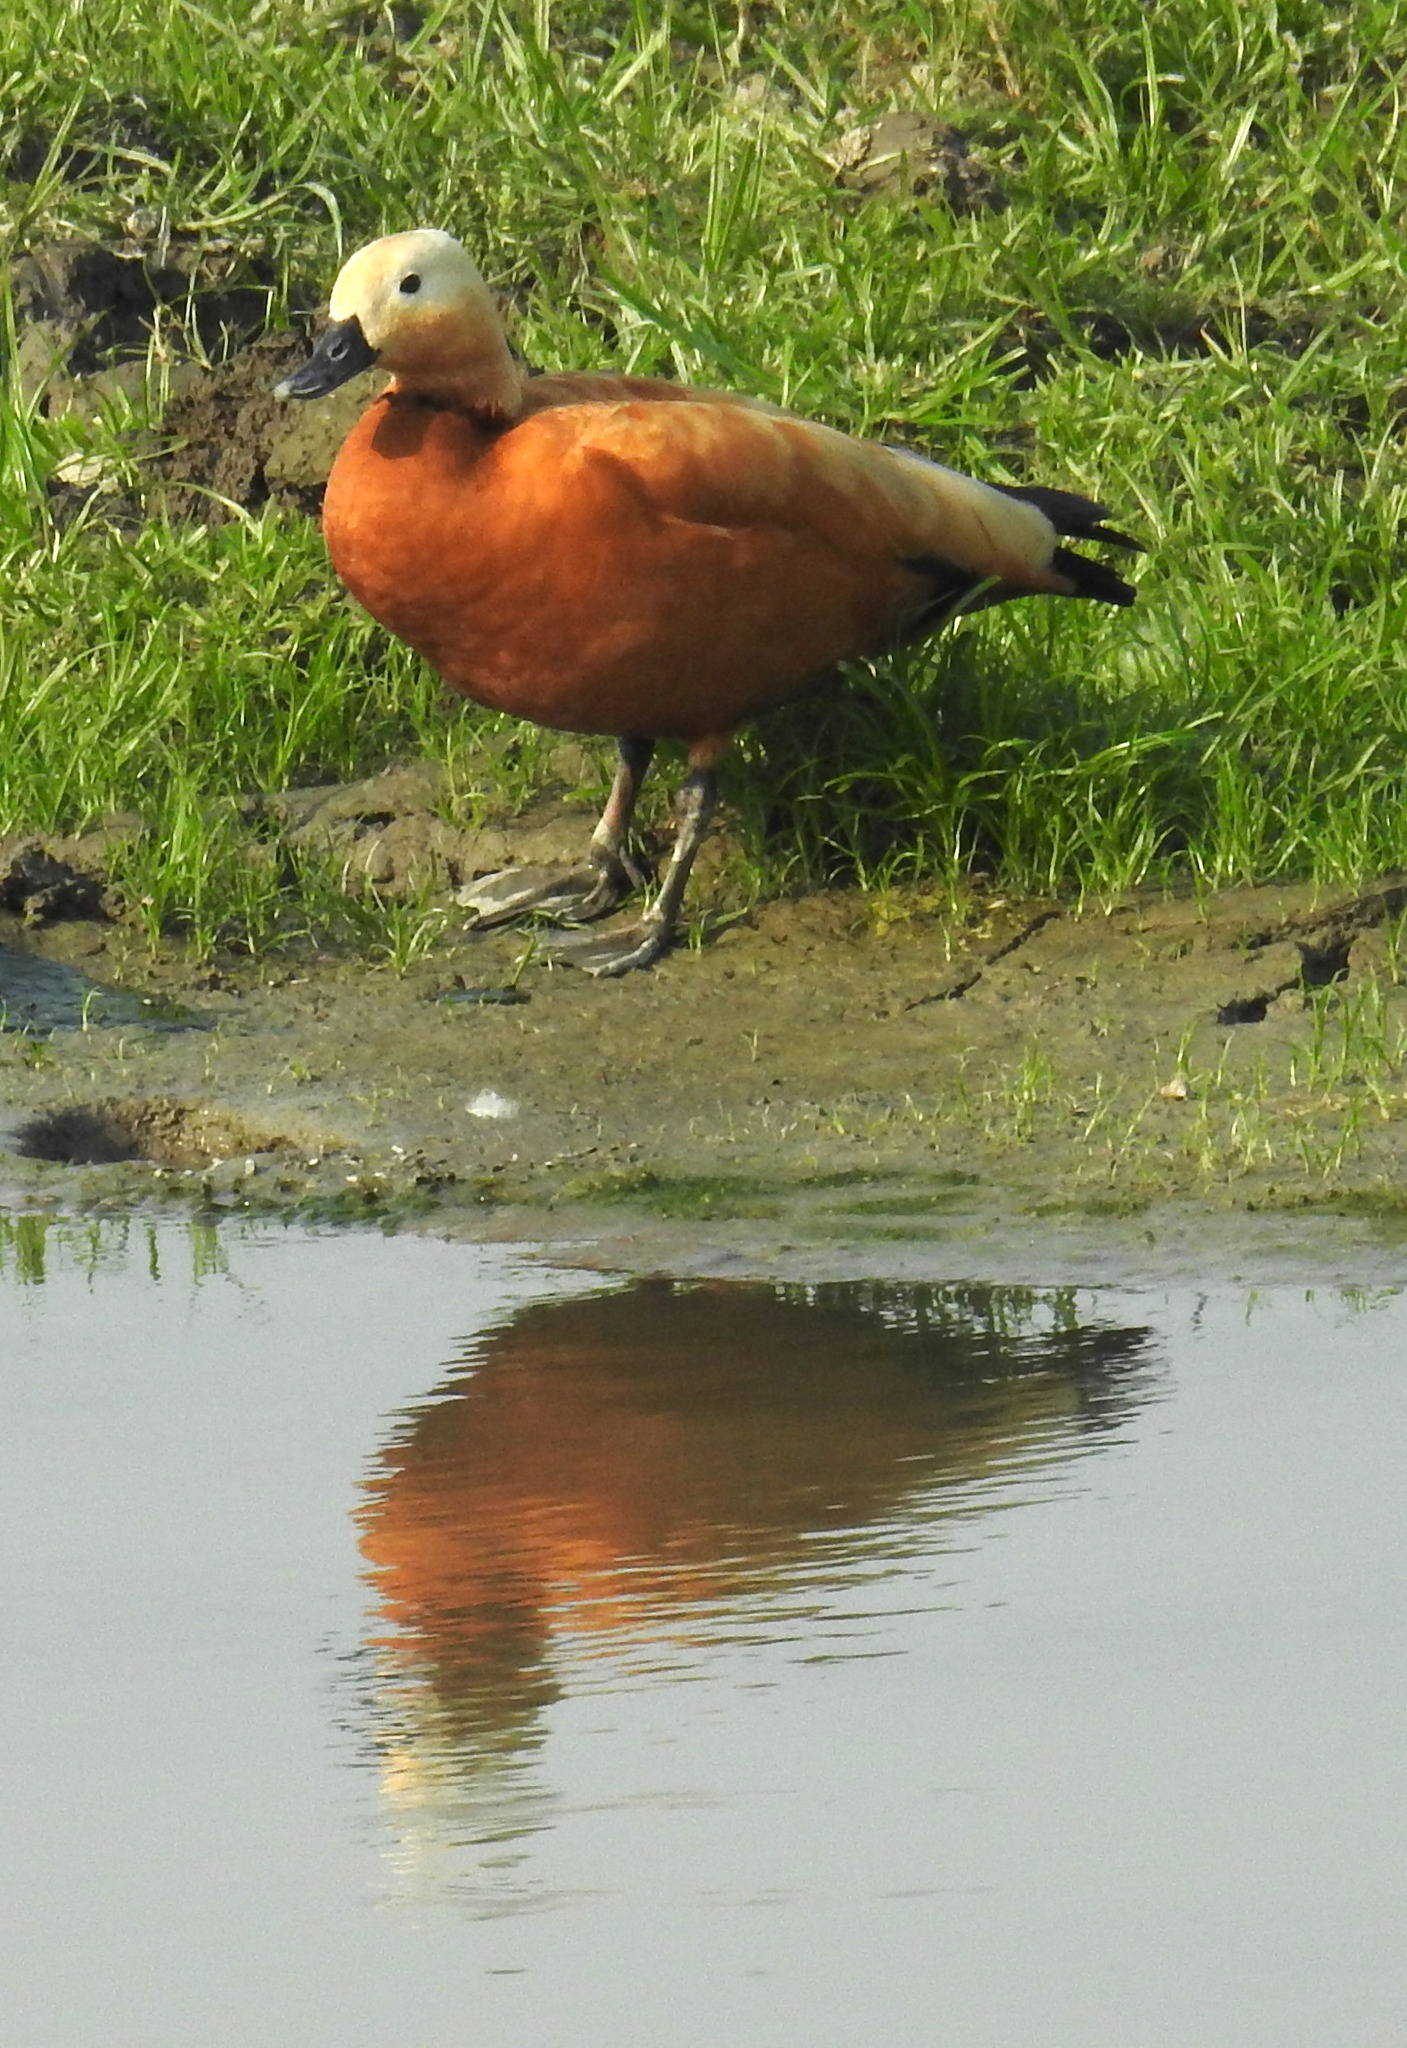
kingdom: Animalia
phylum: Chordata
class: Aves
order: Anseriformes
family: Anatidae
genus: Tadorna
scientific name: Tadorna ferruginea
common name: Ruddy shelduck
